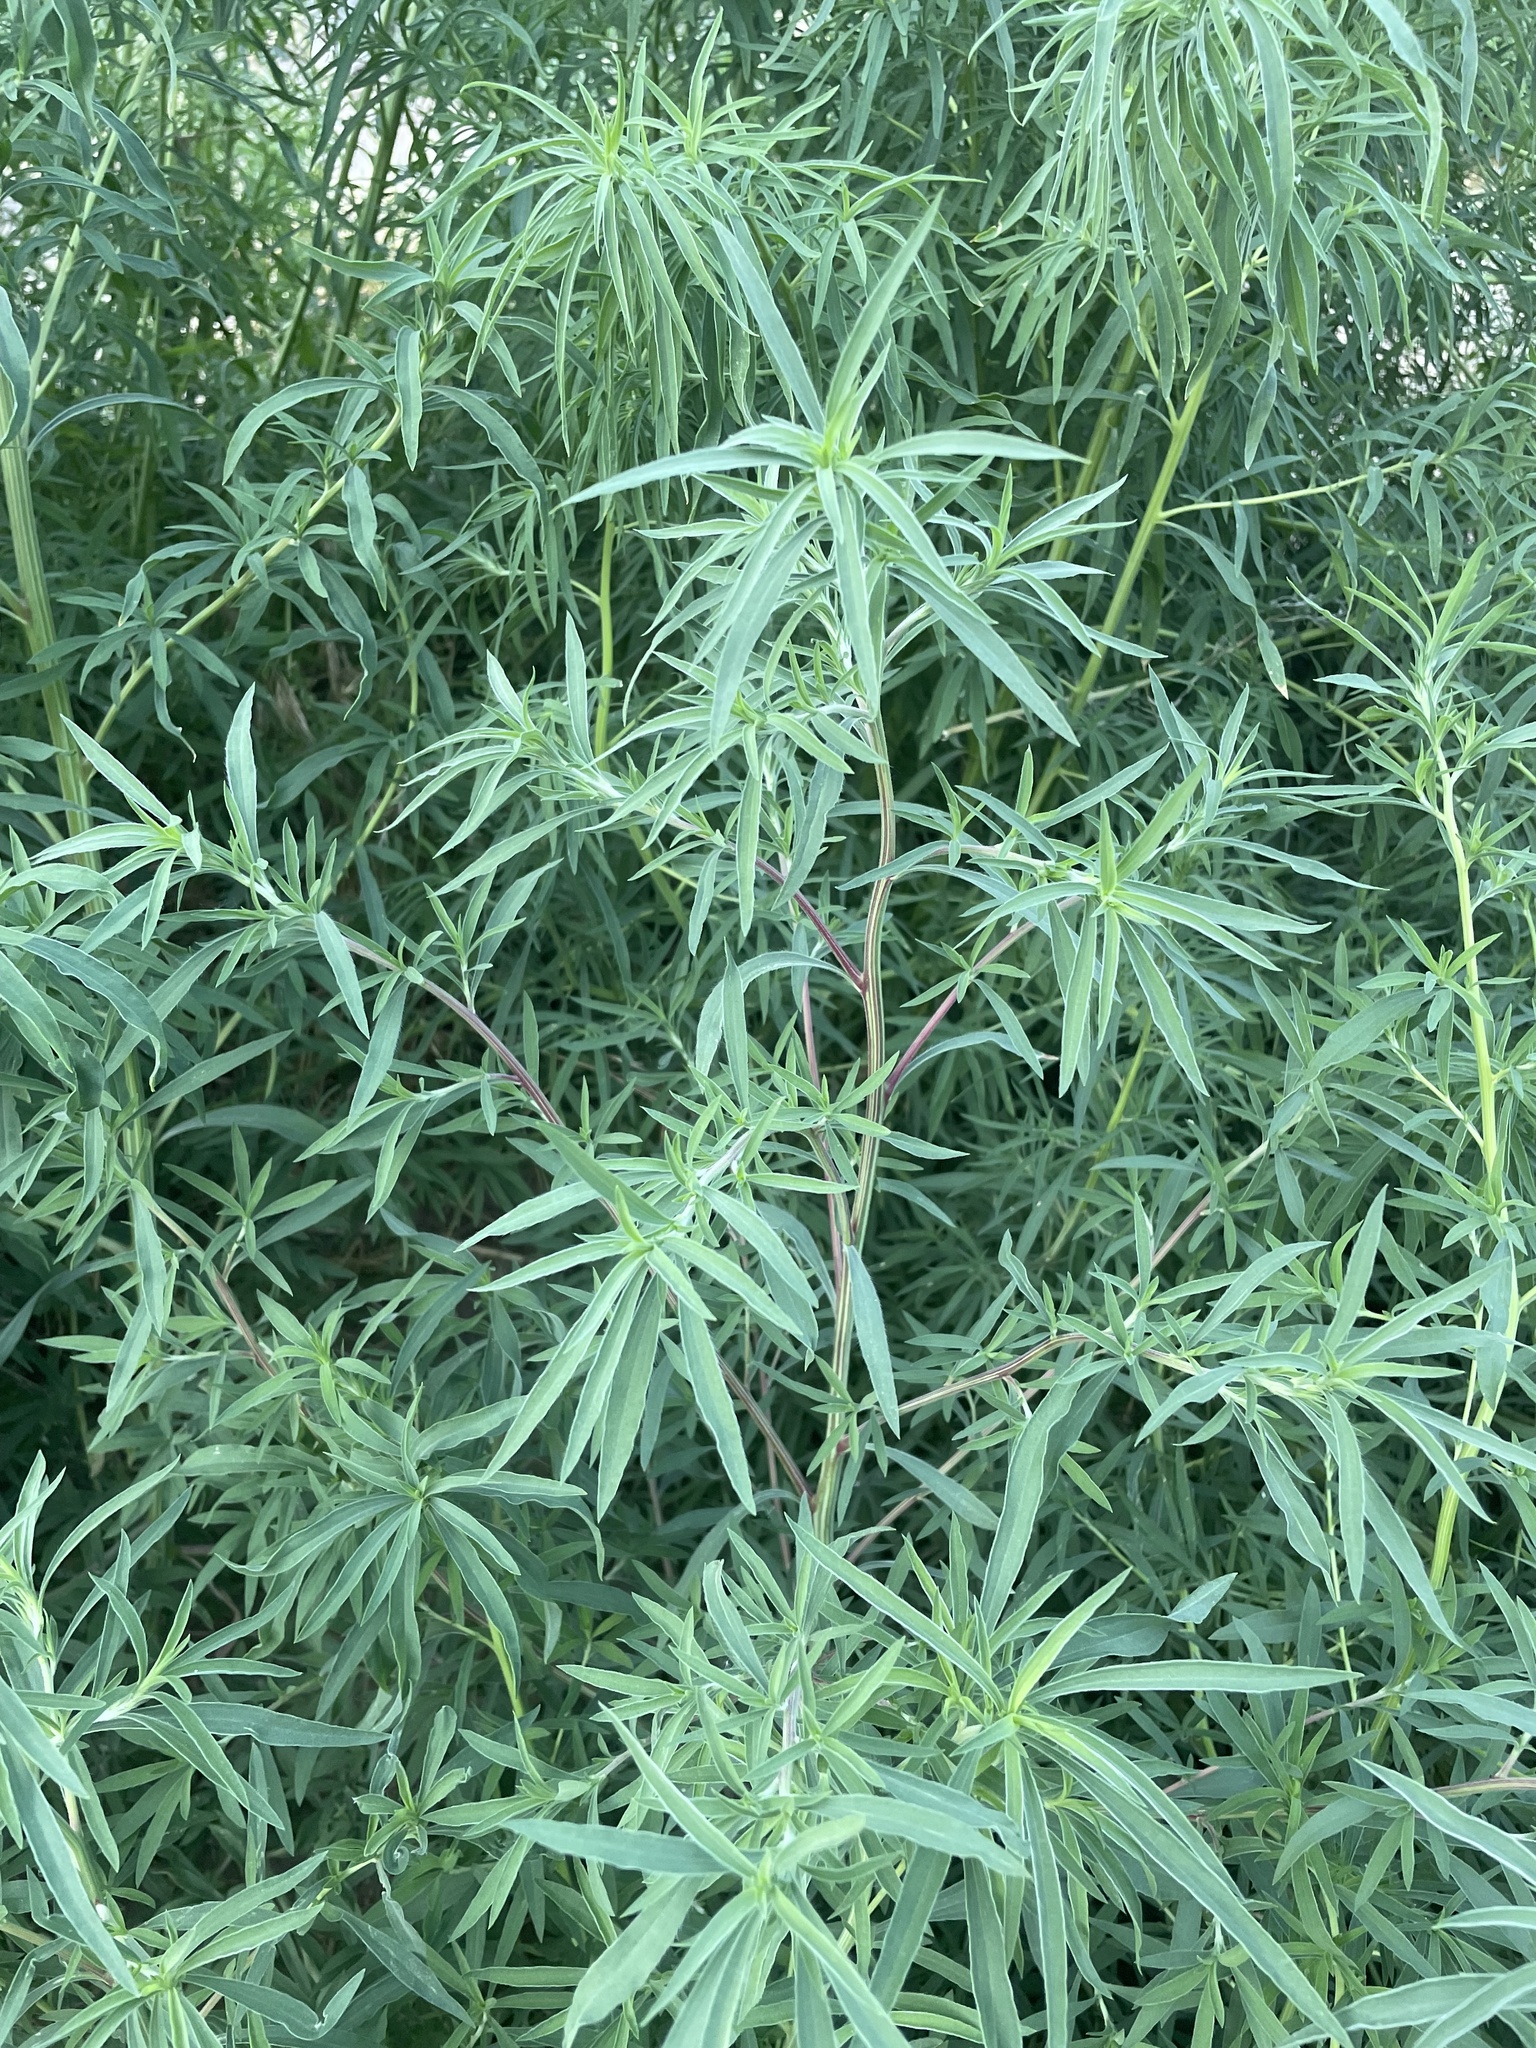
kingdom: Plantae
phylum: Tracheophyta
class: Magnoliopsida
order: Caryophyllales
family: Amaranthaceae
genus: Bassia
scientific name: Bassia scoparia
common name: Belvedere
